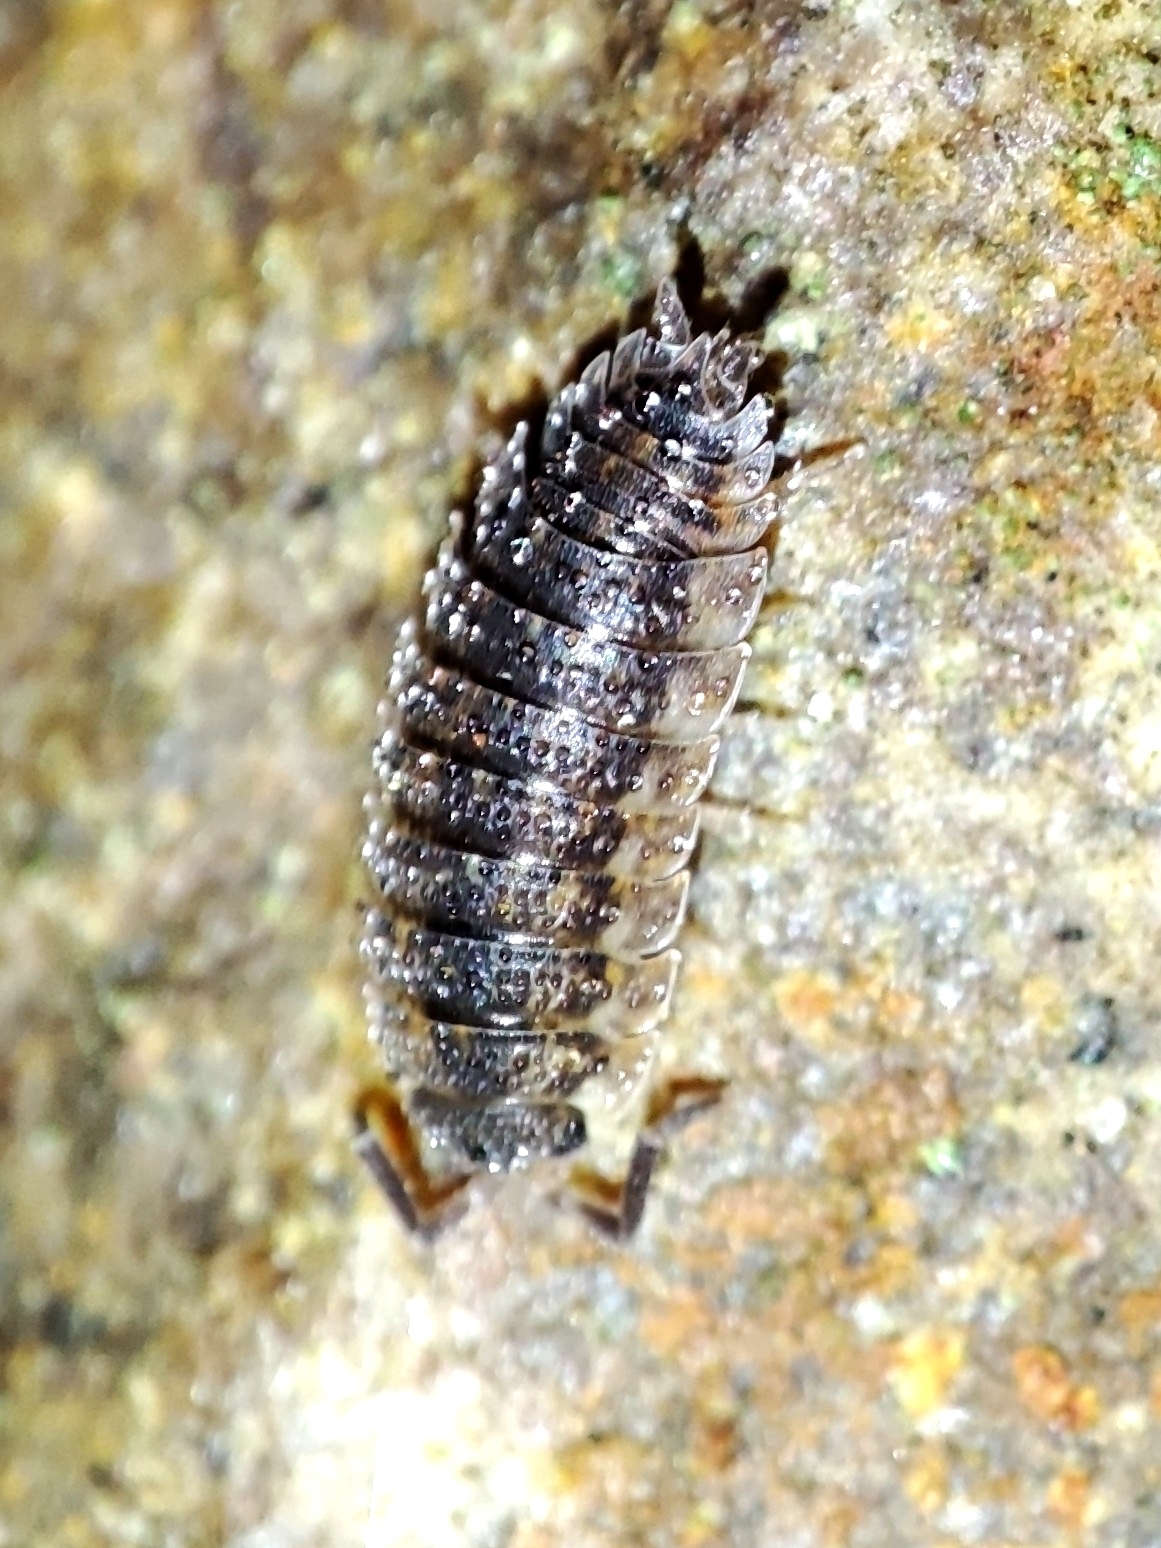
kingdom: Animalia
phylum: Arthropoda
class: Malacostraca
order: Isopoda
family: Porcellionidae
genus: Porcellio
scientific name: Porcellio scaber
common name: Common rough woodlouse
